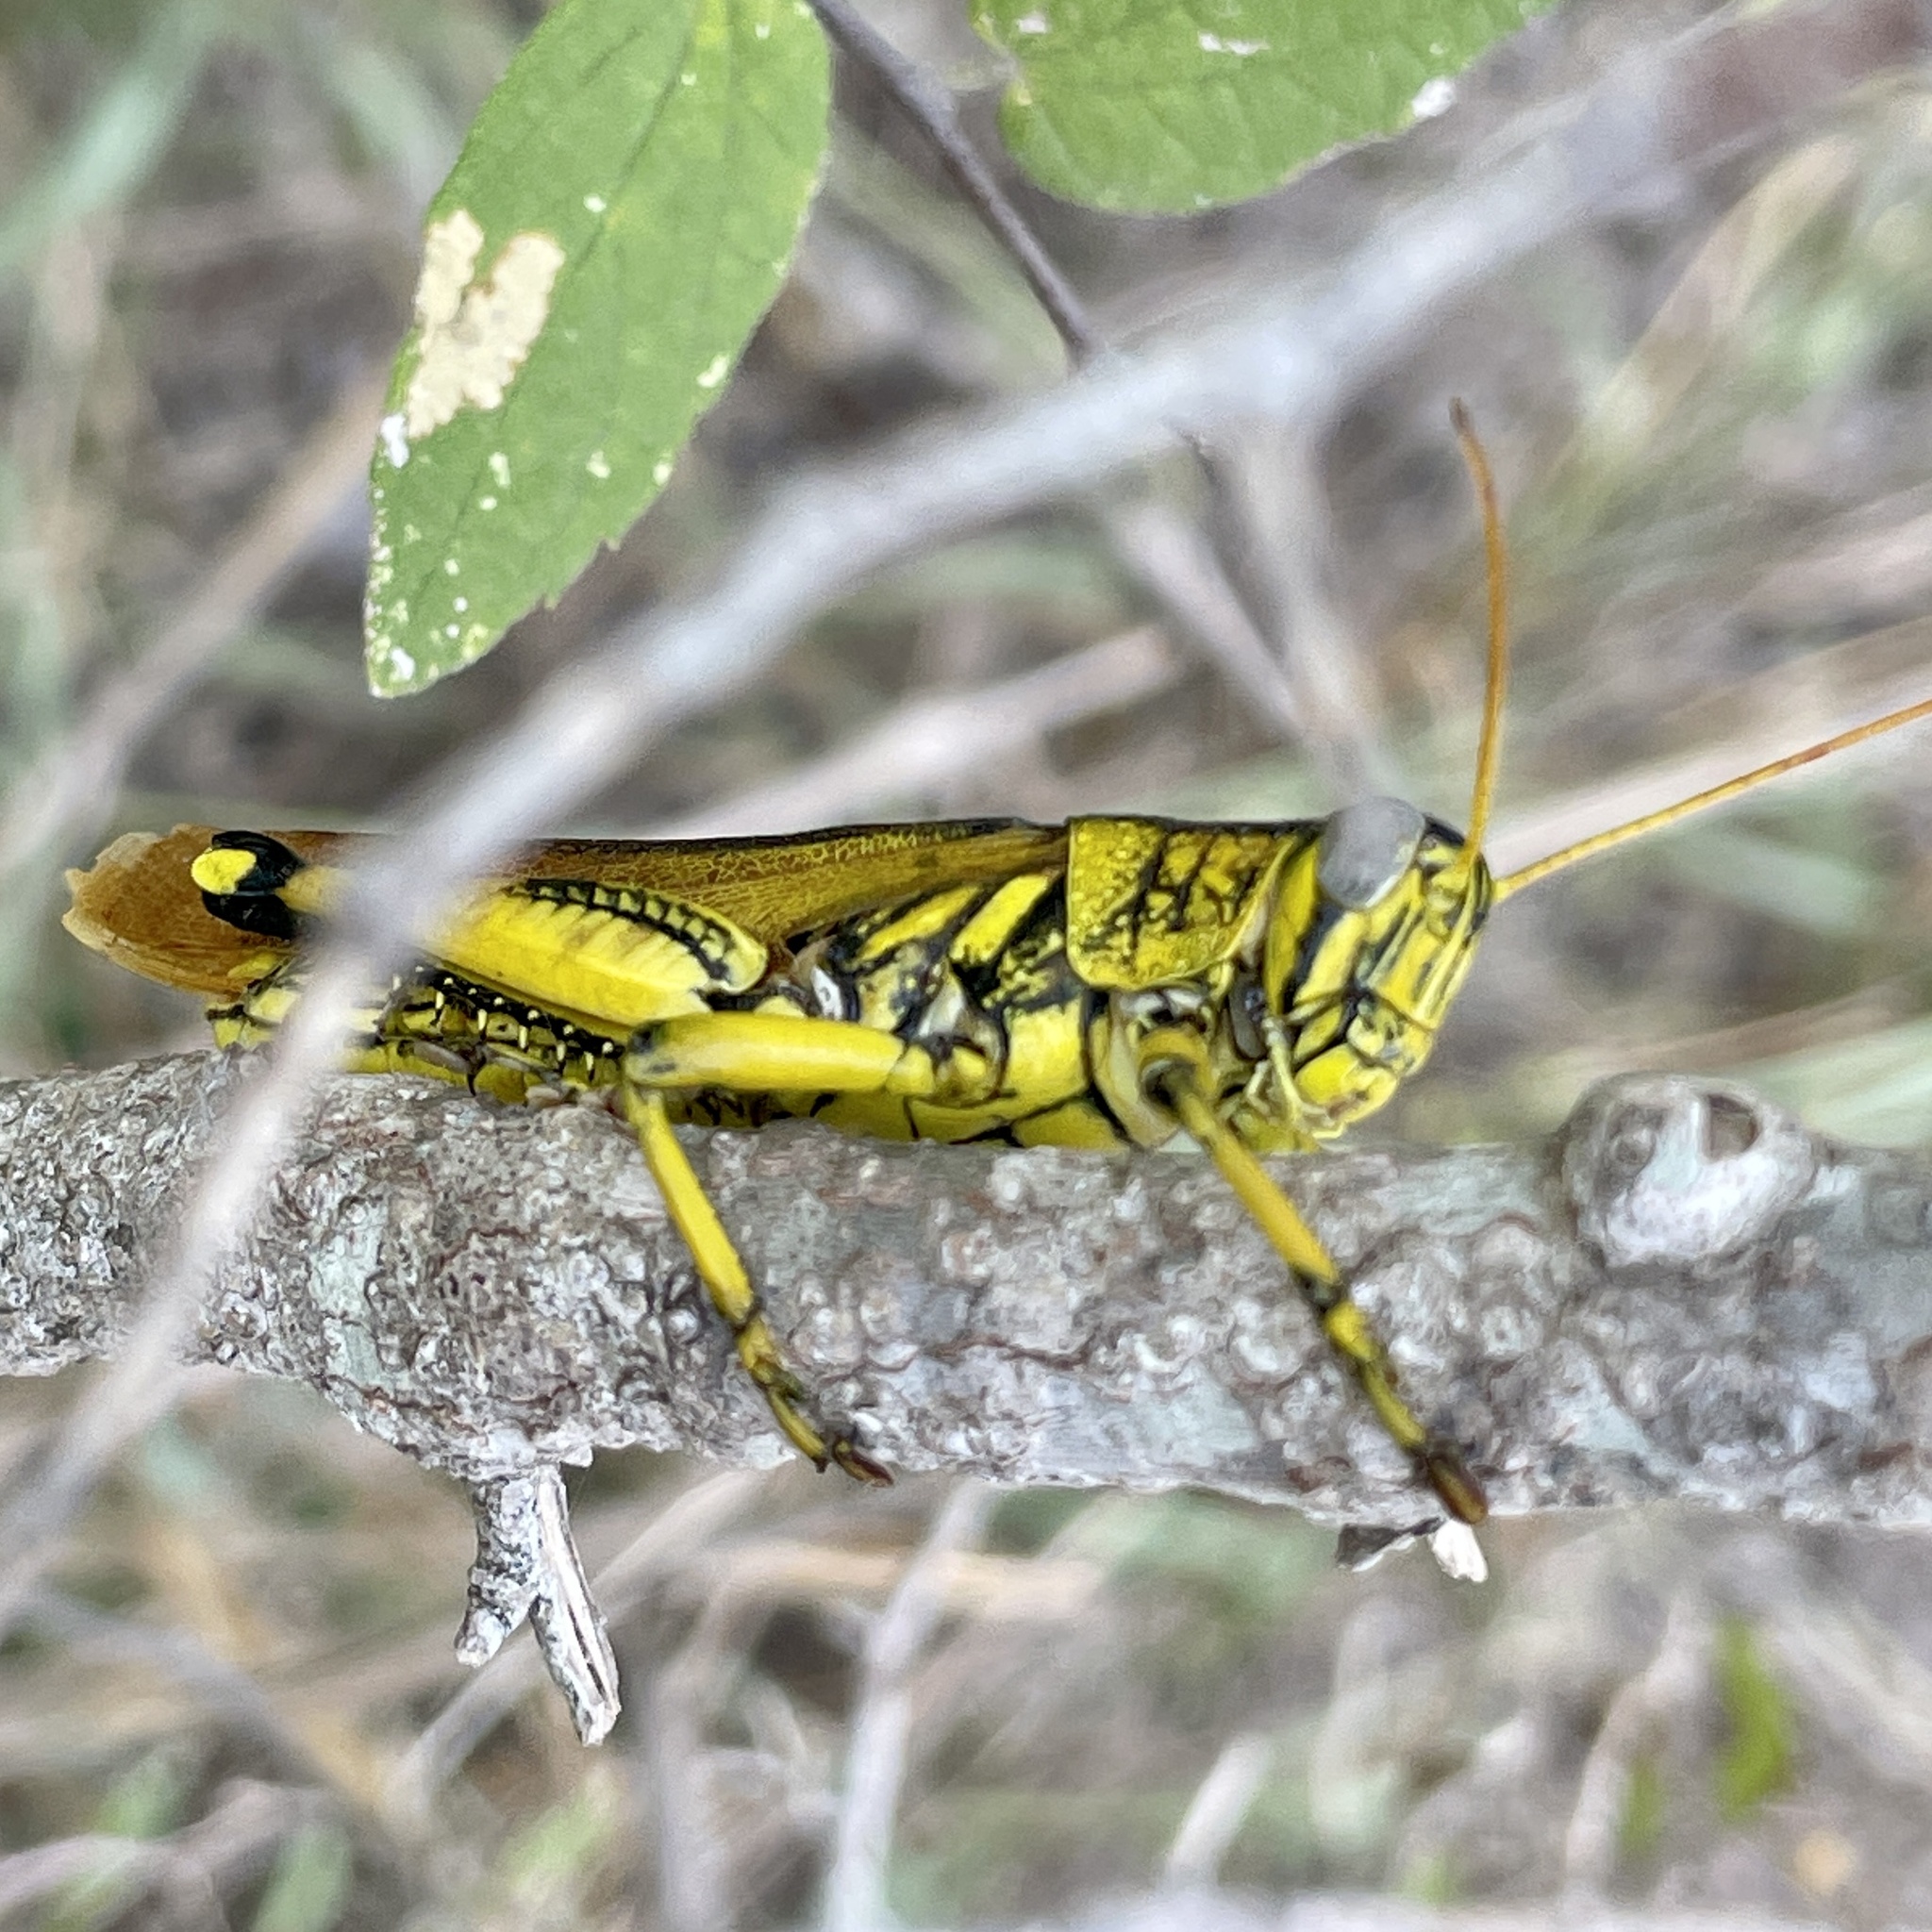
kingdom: Animalia
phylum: Arthropoda
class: Insecta
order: Orthoptera
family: Acrididae
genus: Schistocerca
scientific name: Schistocerca lineata
